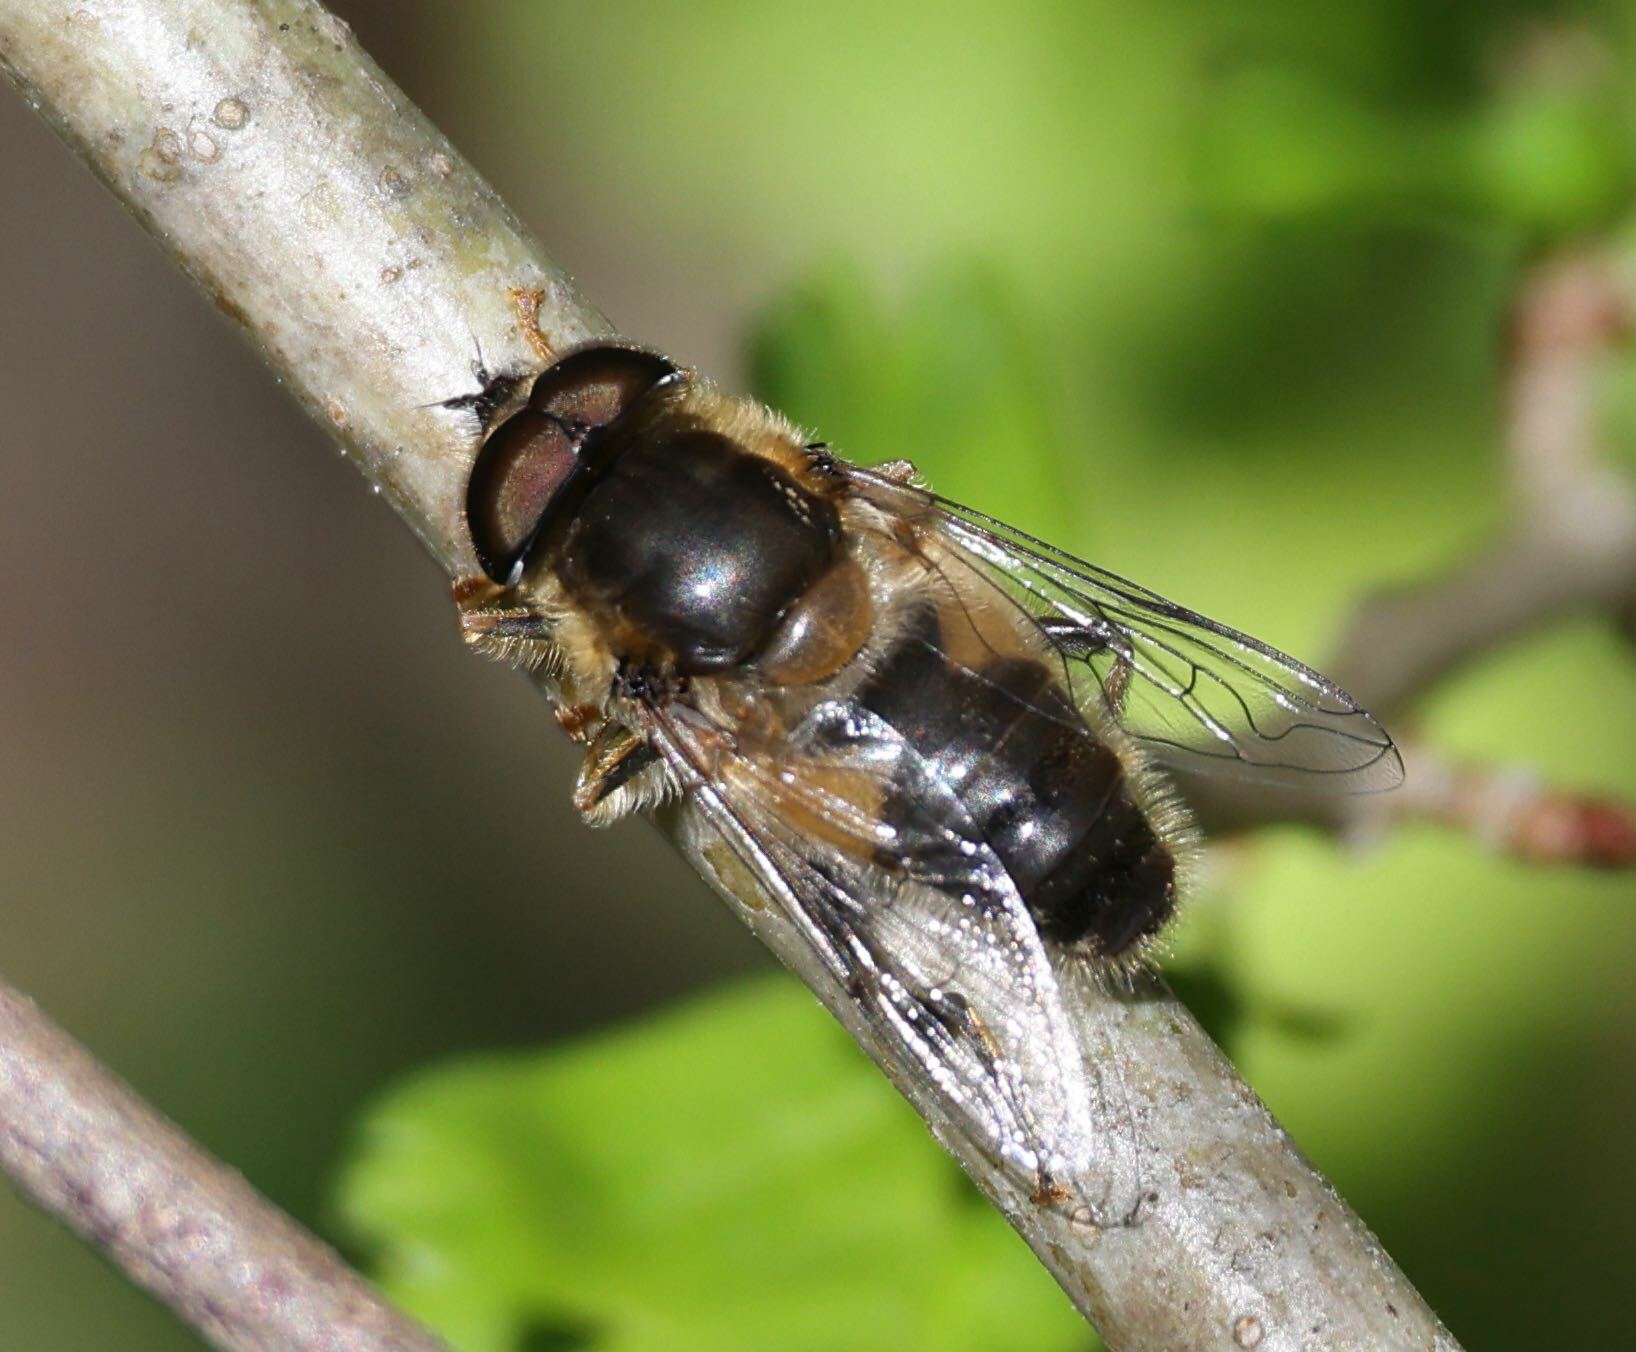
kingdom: Animalia
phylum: Arthropoda
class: Insecta
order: Diptera
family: Syrphidae
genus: Eristalis
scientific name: Eristalis pertinax
